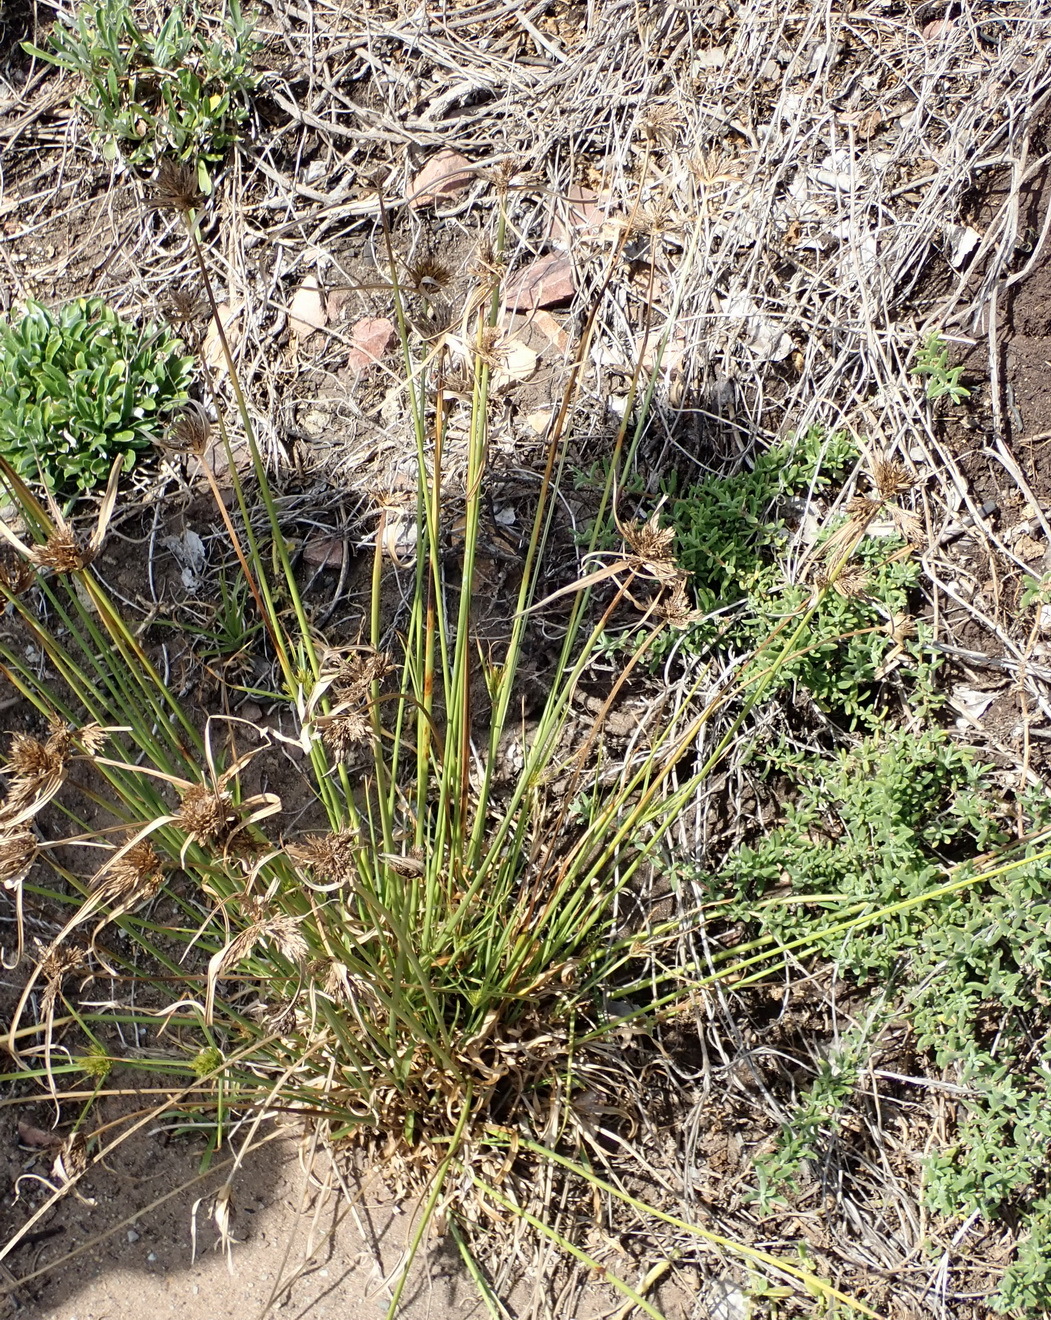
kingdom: Plantae
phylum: Tracheophyta
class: Liliopsida
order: Poales
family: Cyperaceae
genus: Cyperus
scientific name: Cyperus polystachyos
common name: Bunchy flat sedge
